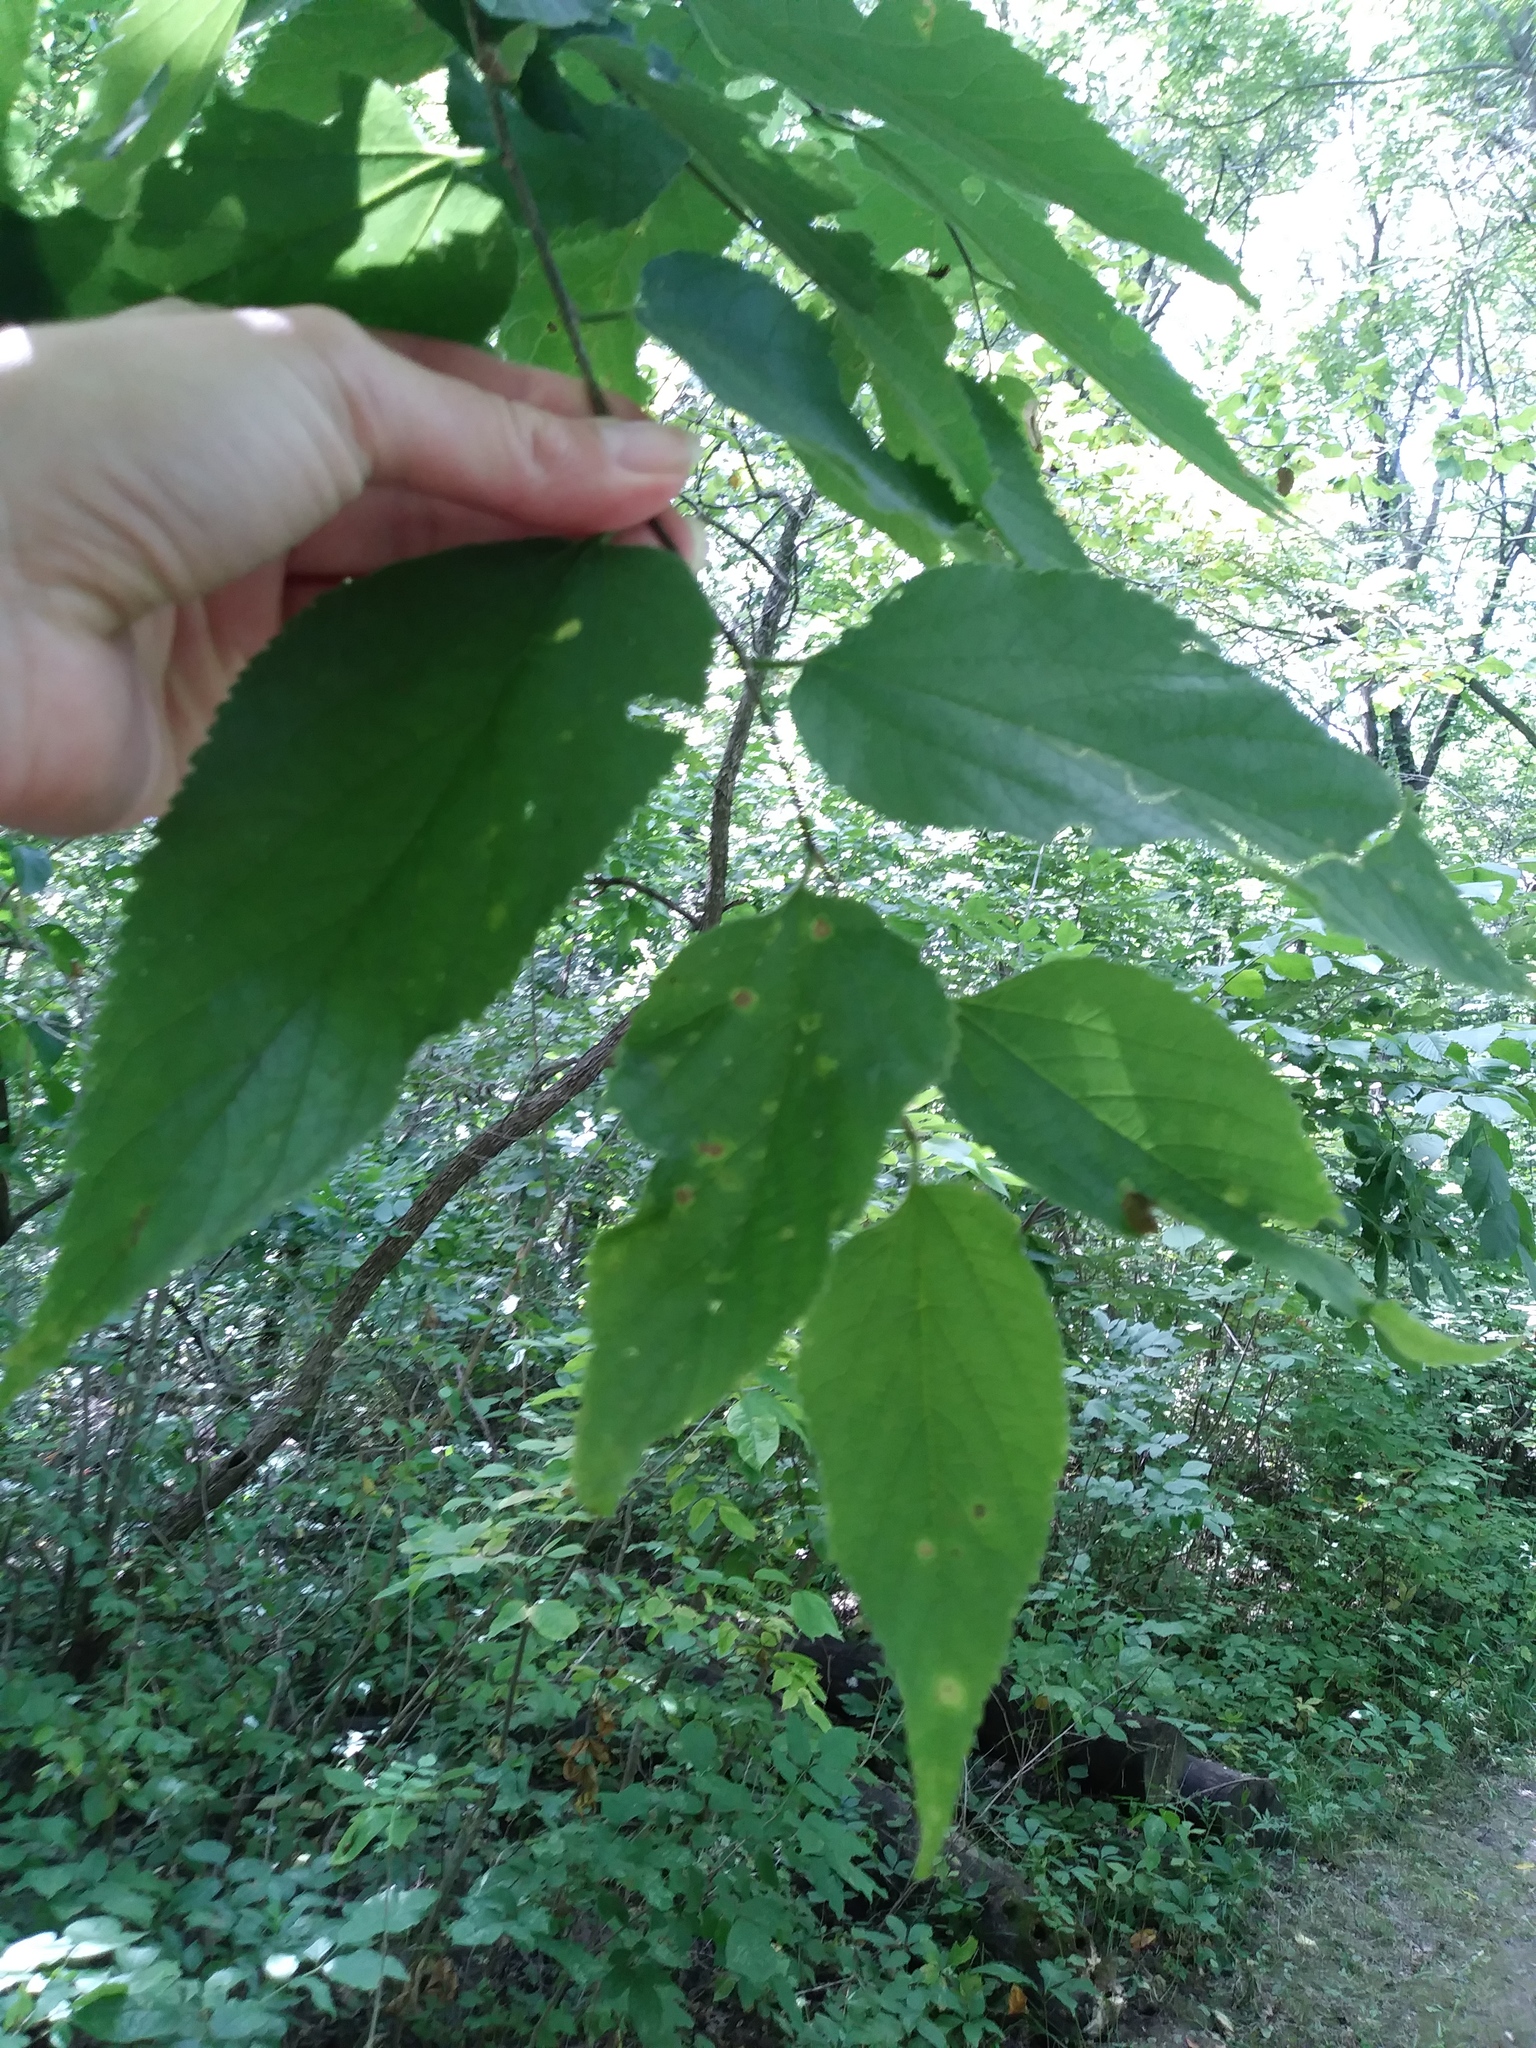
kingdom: Plantae
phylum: Tracheophyta
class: Magnoliopsida
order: Rosales
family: Cannabaceae
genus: Celtis
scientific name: Celtis occidentalis
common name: Common hackberry
